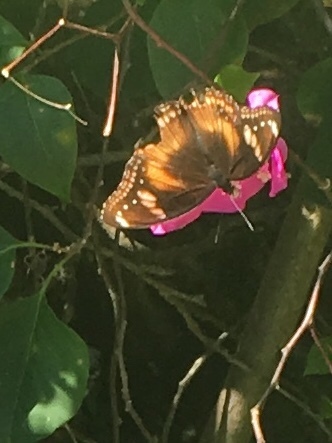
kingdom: Animalia
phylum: Arthropoda
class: Insecta
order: Lepidoptera
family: Nymphalidae
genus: Hypolimnas
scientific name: Hypolimnas bolina
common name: Great eggfly
